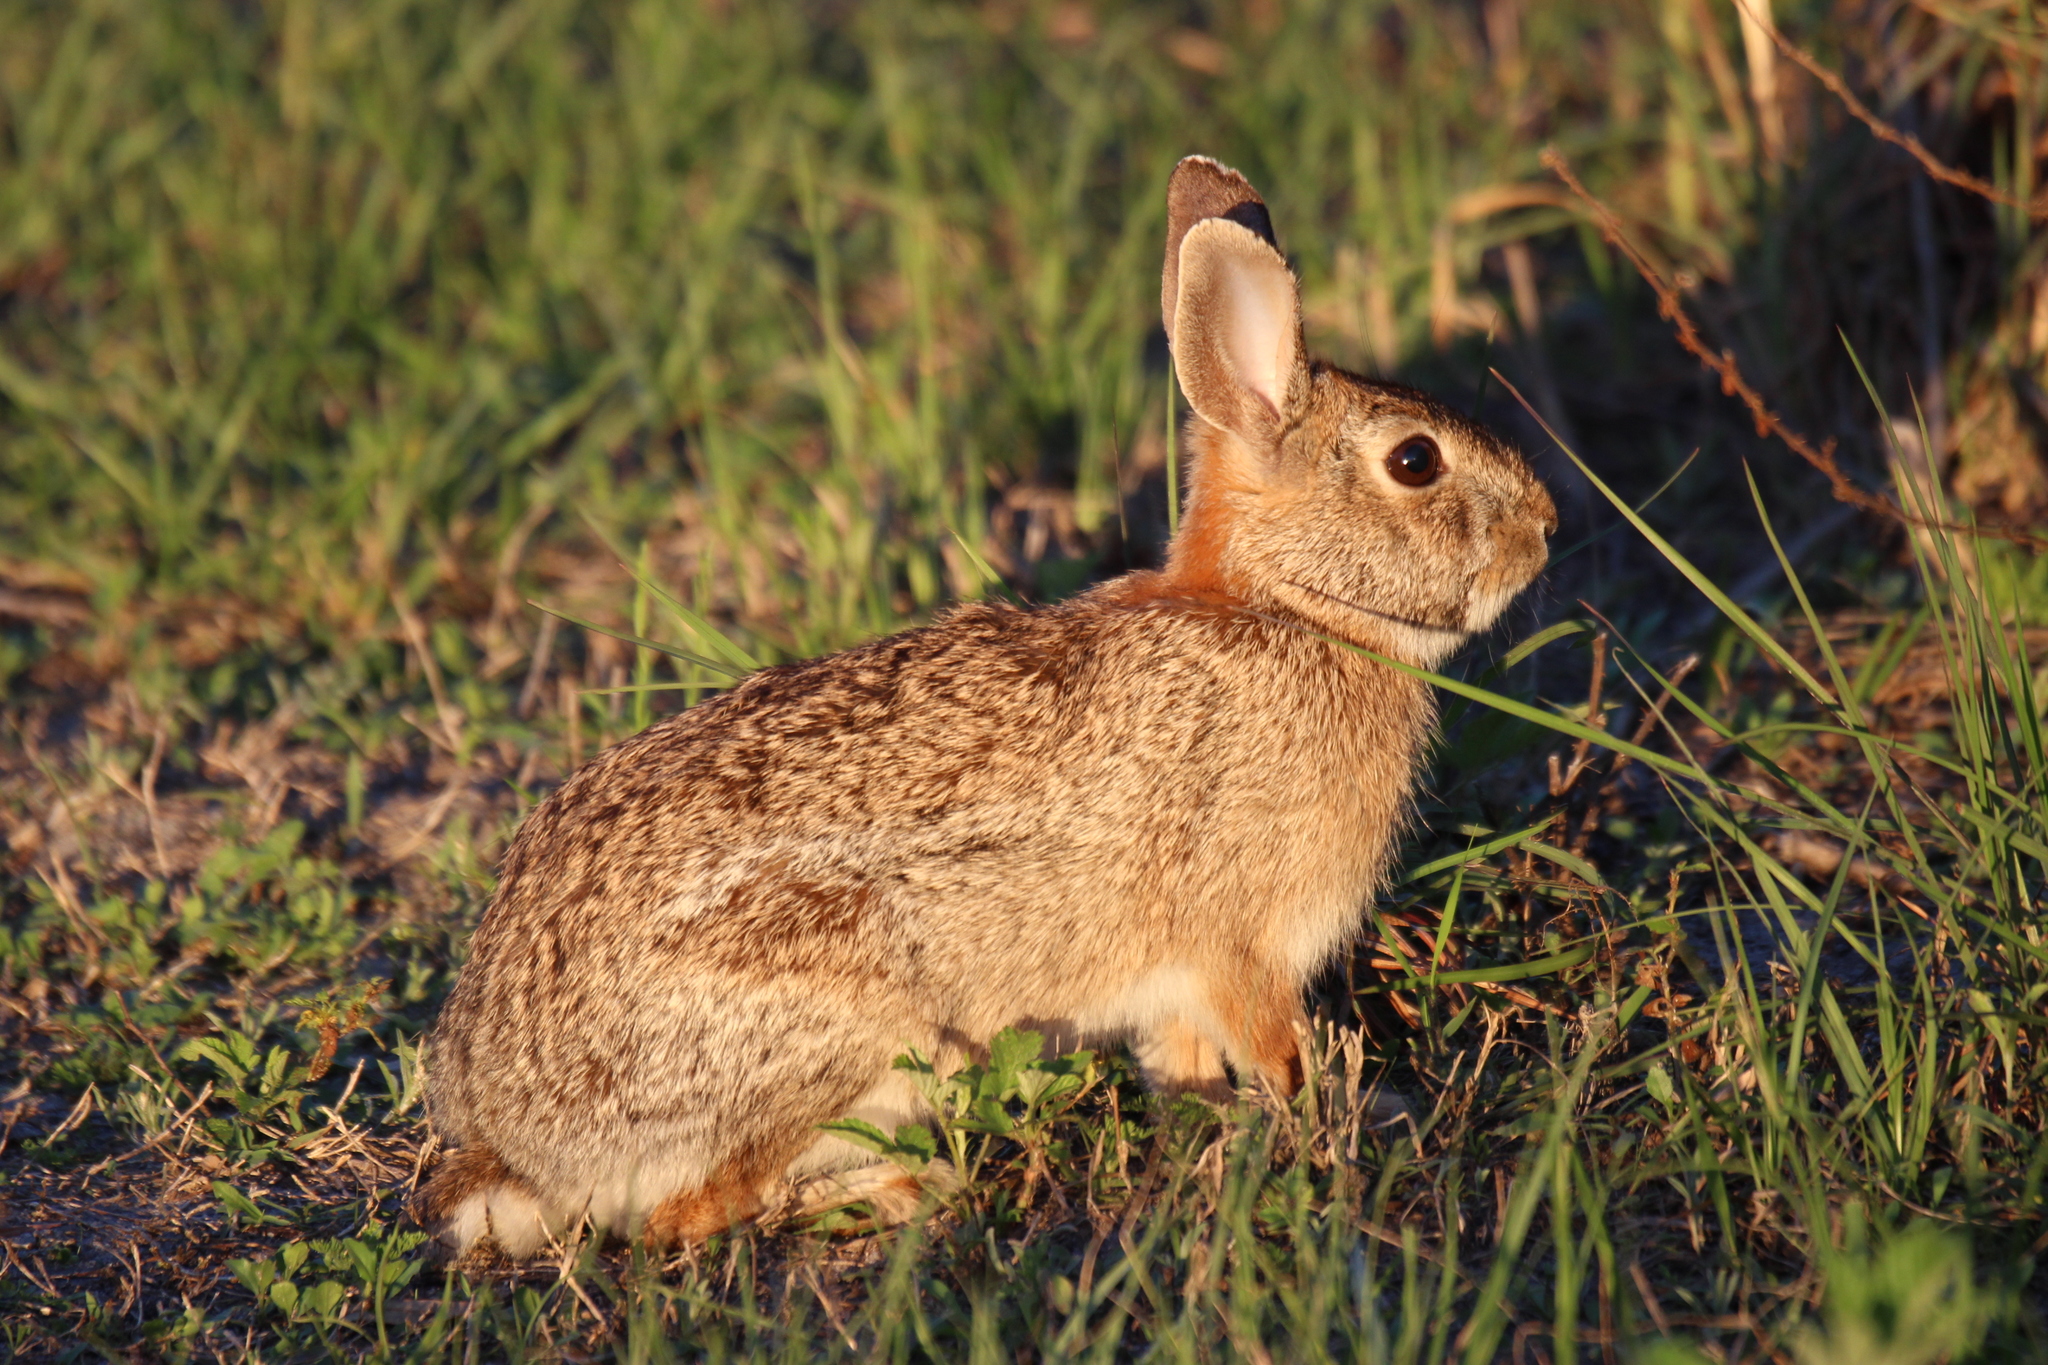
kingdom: Animalia
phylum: Chordata
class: Mammalia
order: Lagomorpha
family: Leporidae
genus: Sylvilagus
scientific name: Sylvilagus floridanus
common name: Eastern cottontail
